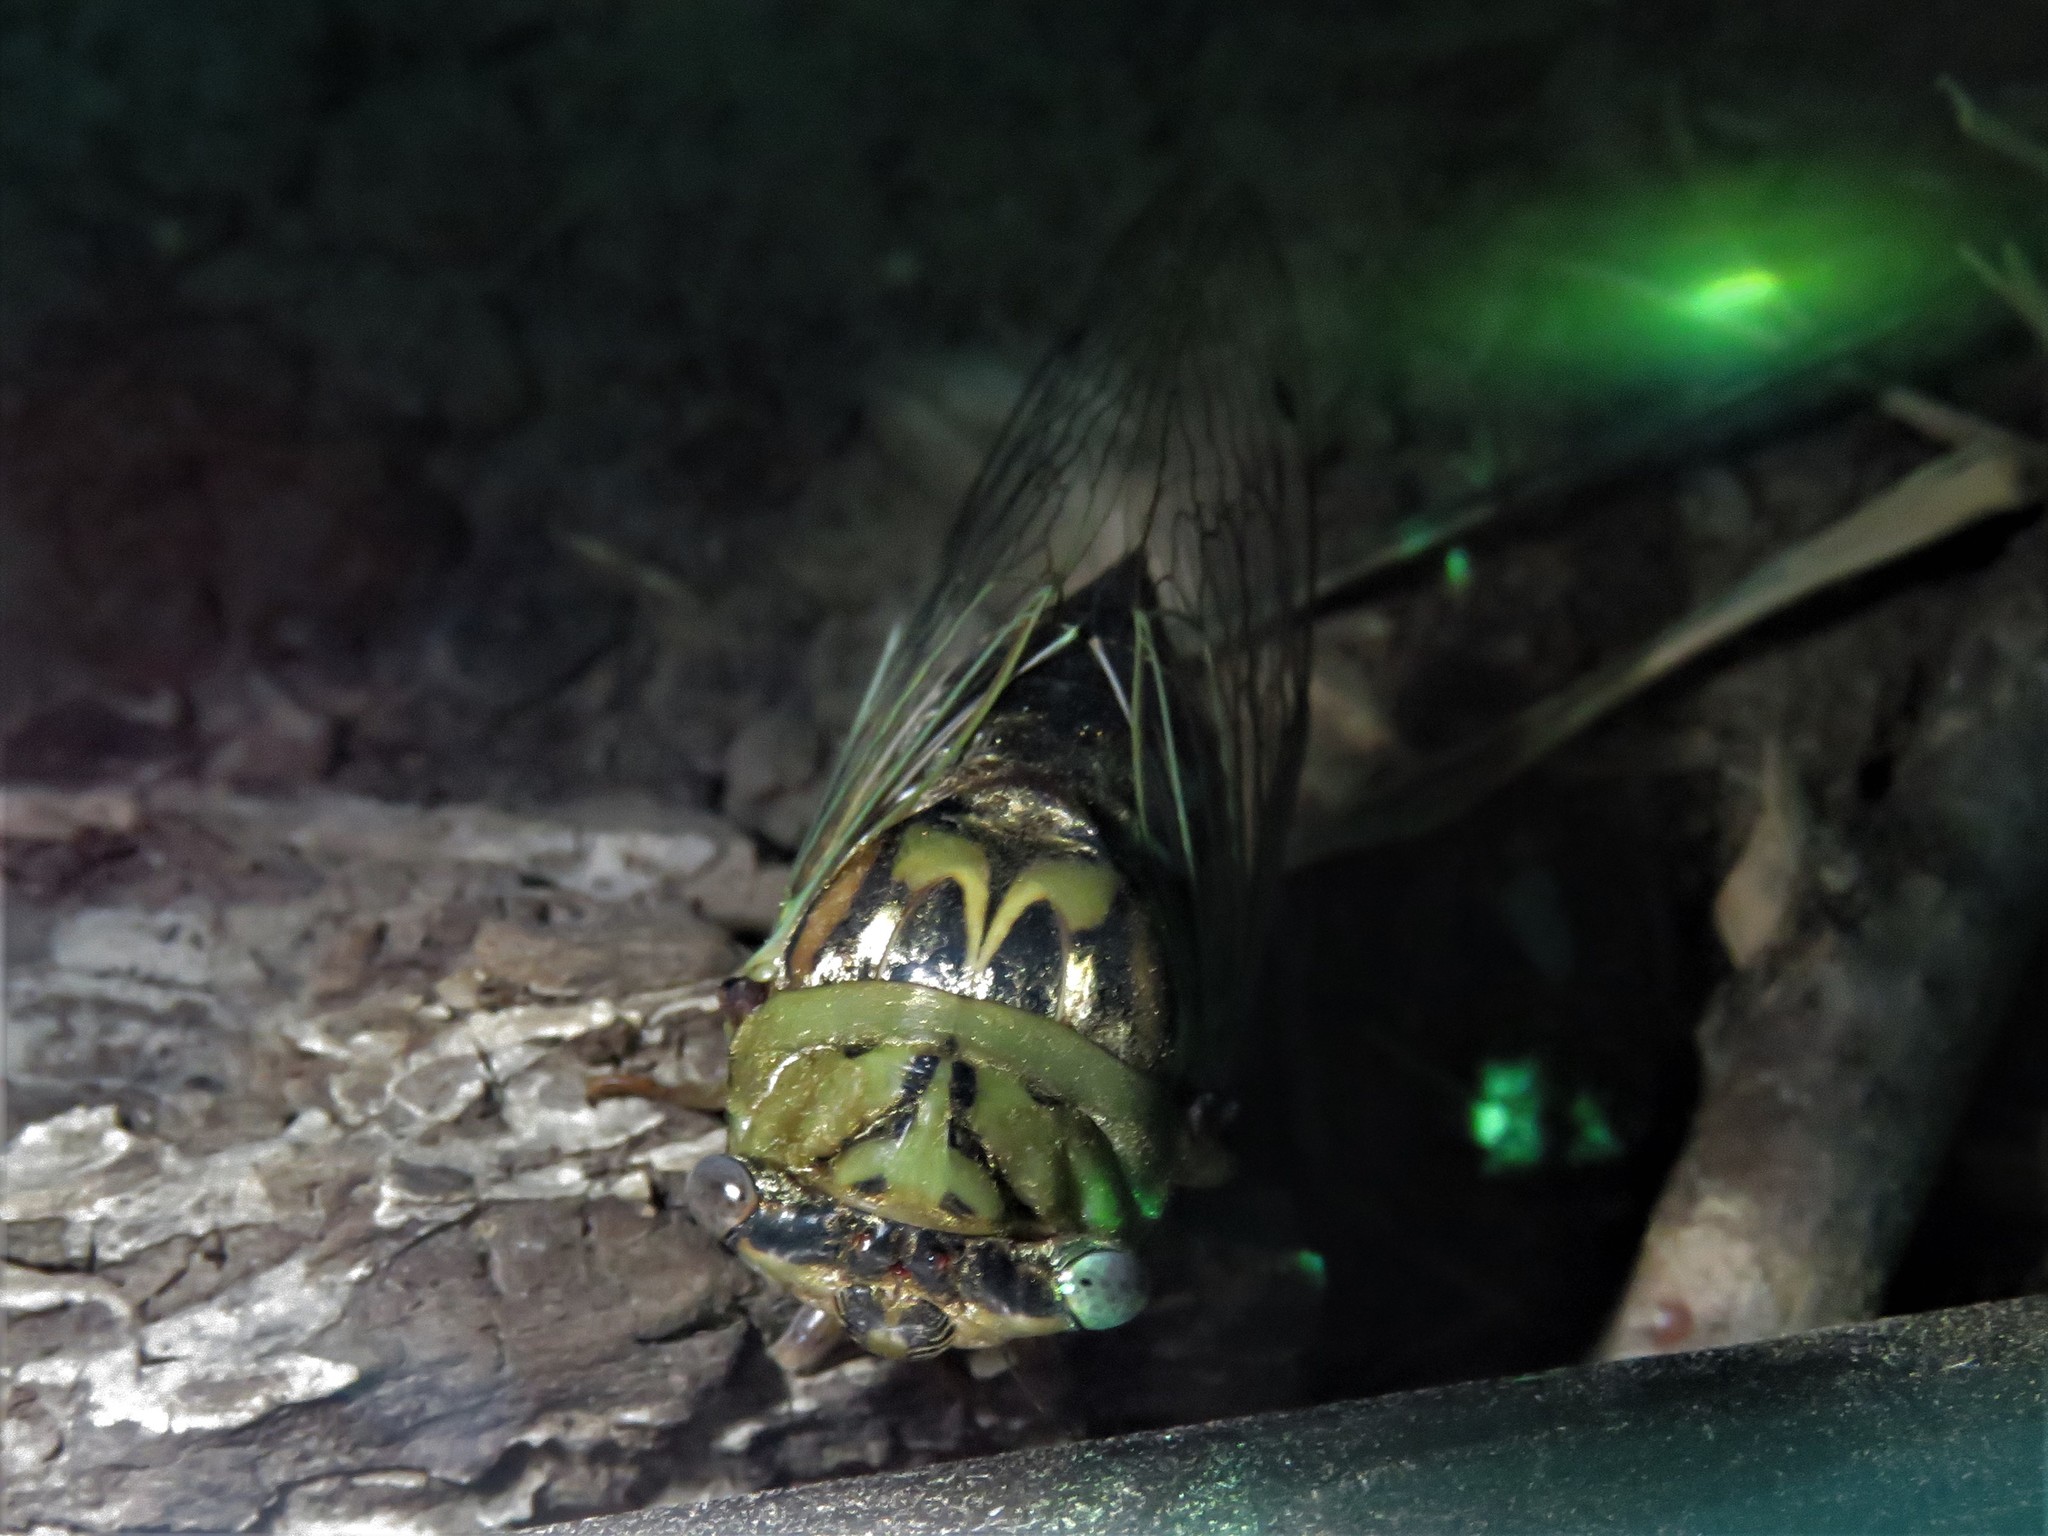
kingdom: Animalia
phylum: Arthropoda
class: Insecta
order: Hemiptera
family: Cicadidae
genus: Megatibicen
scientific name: Megatibicen resh
